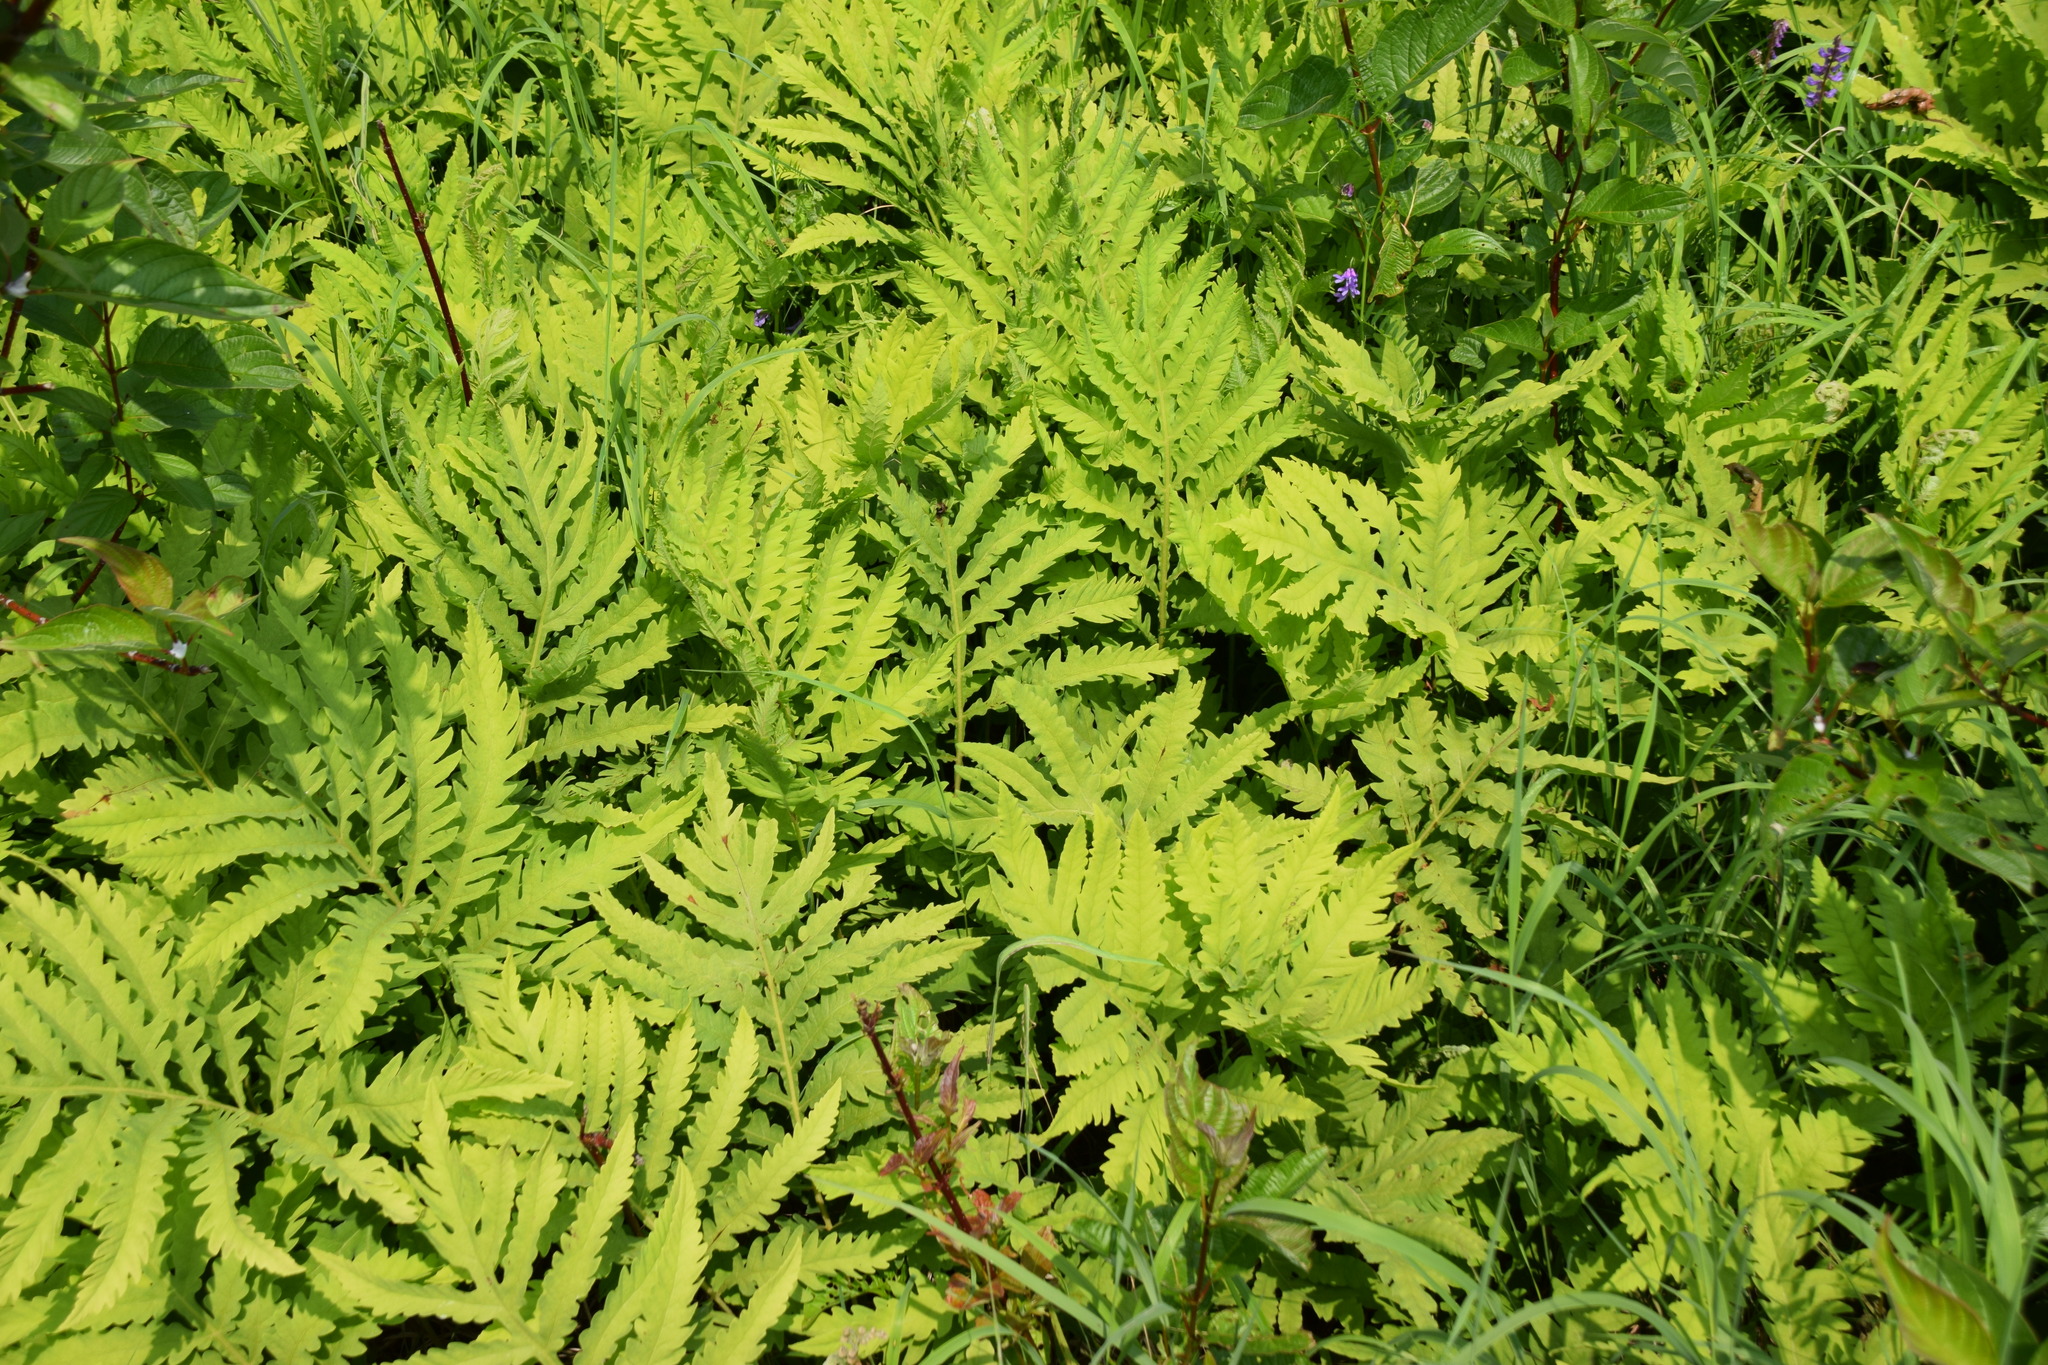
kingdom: Plantae
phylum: Tracheophyta
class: Polypodiopsida
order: Polypodiales
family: Onocleaceae
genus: Onoclea
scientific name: Onoclea sensibilis
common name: Sensitive fern
